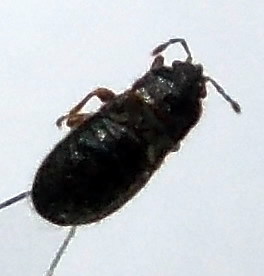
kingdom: Animalia
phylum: Arthropoda
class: Insecta
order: Hemiptera
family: Blissidae
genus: Dimorphopterus
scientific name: Dimorphopterus doriae
